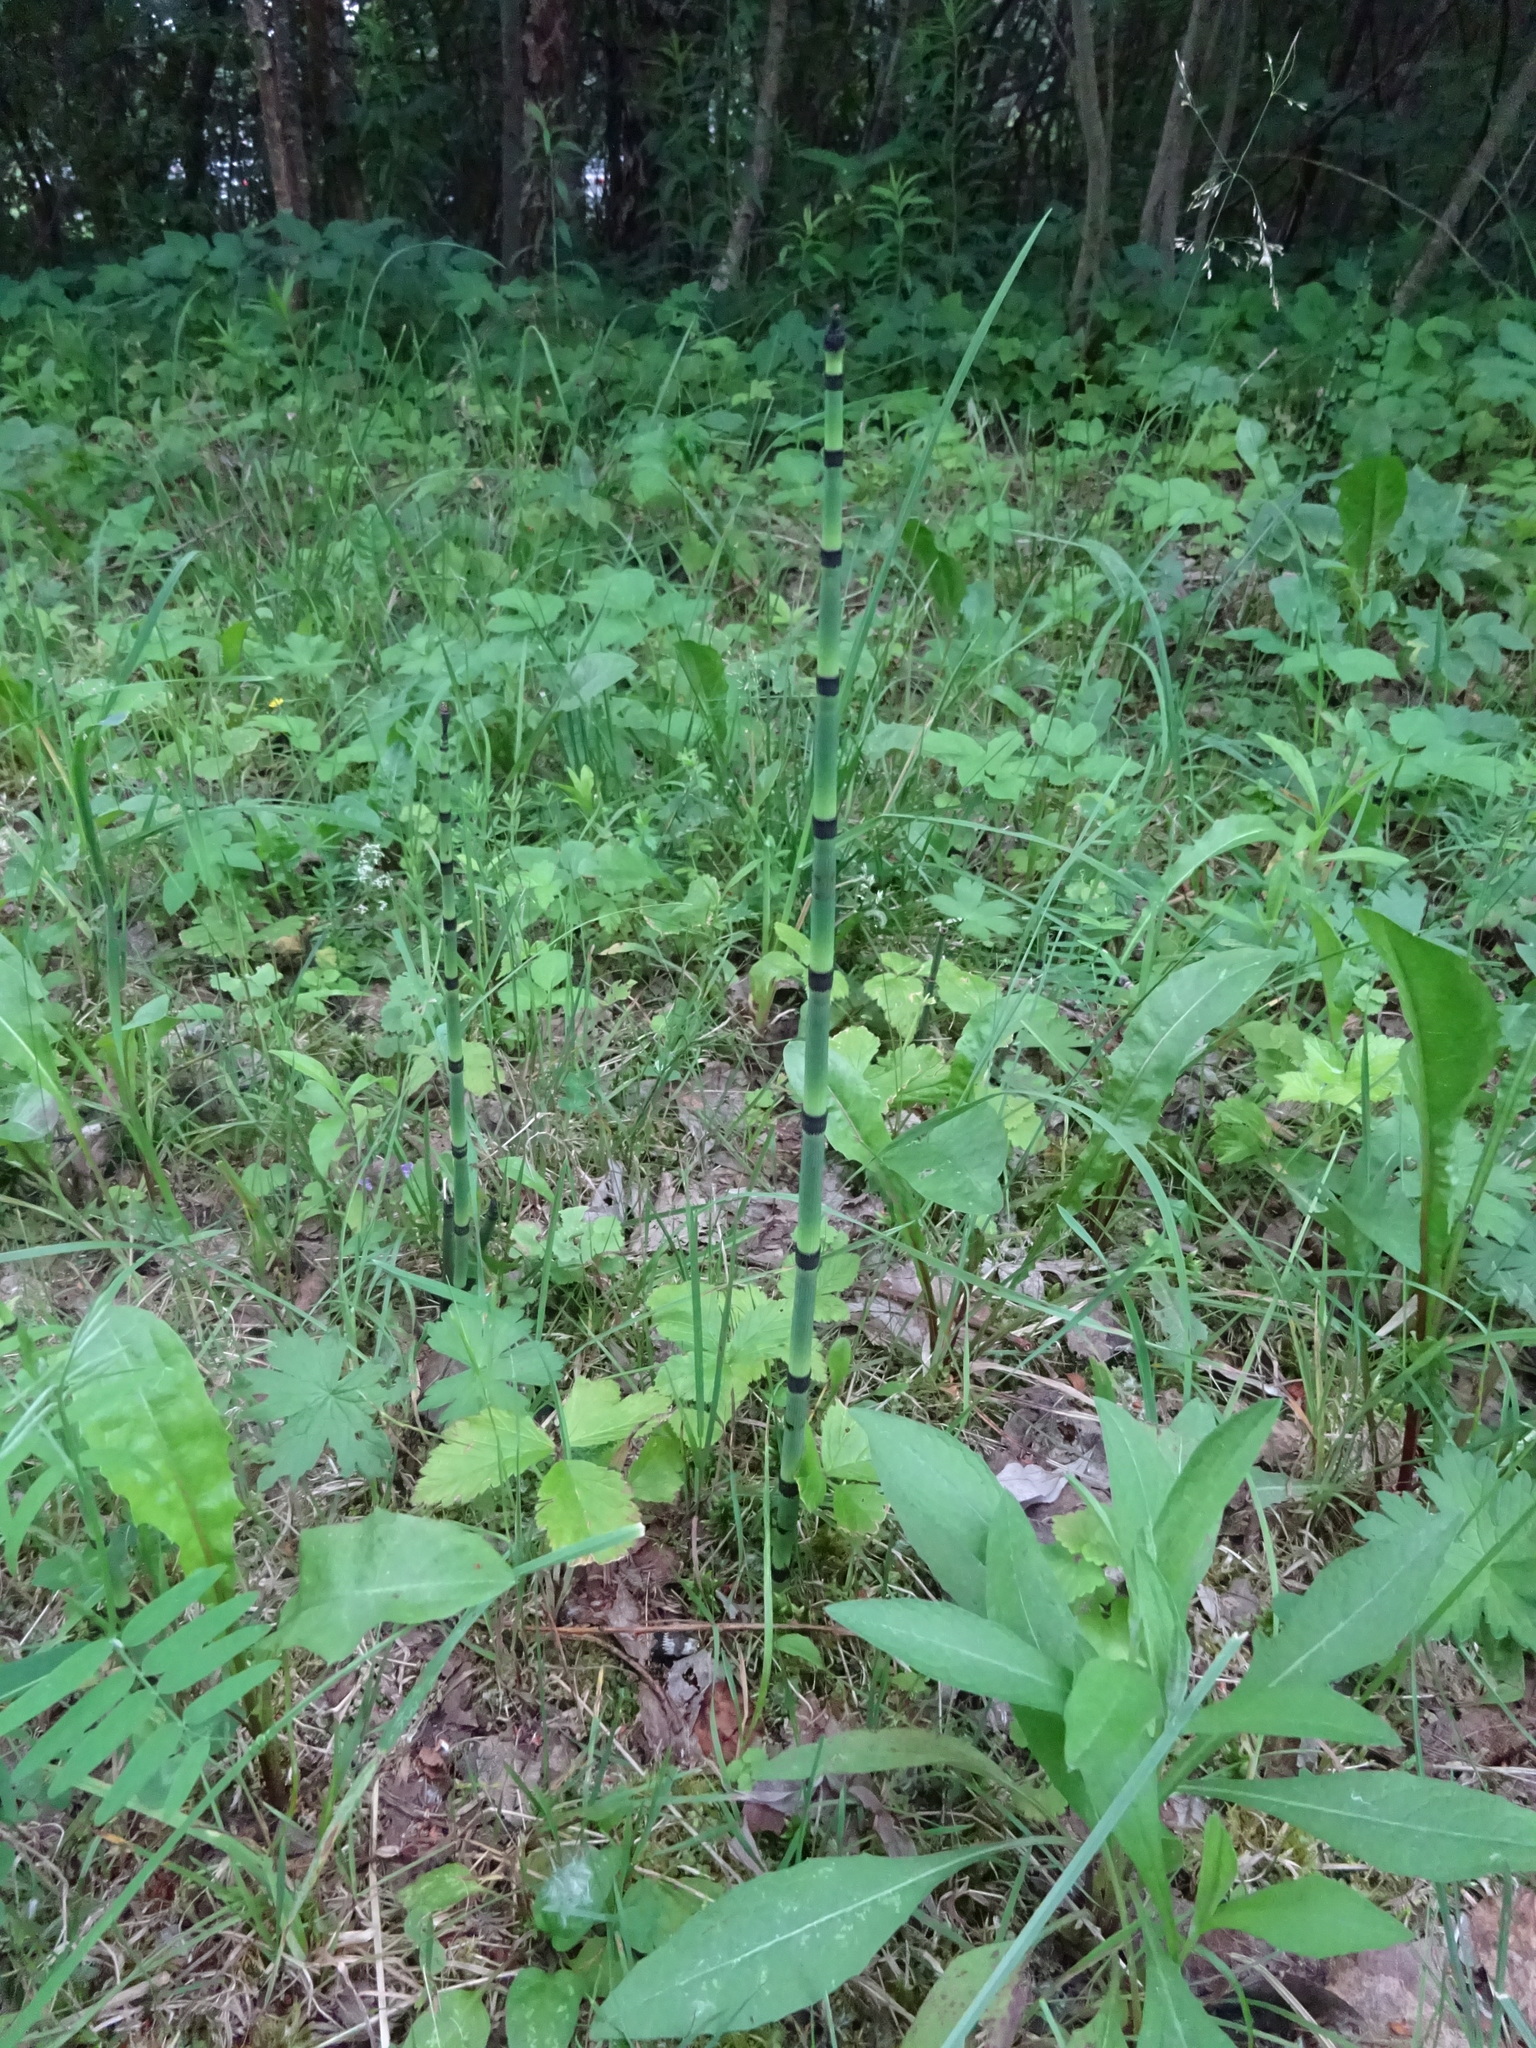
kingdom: Plantae
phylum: Tracheophyta
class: Polypodiopsida
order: Equisetales
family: Equisetaceae
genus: Equisetum
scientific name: Equisetum hyemale
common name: Rough horsetail
